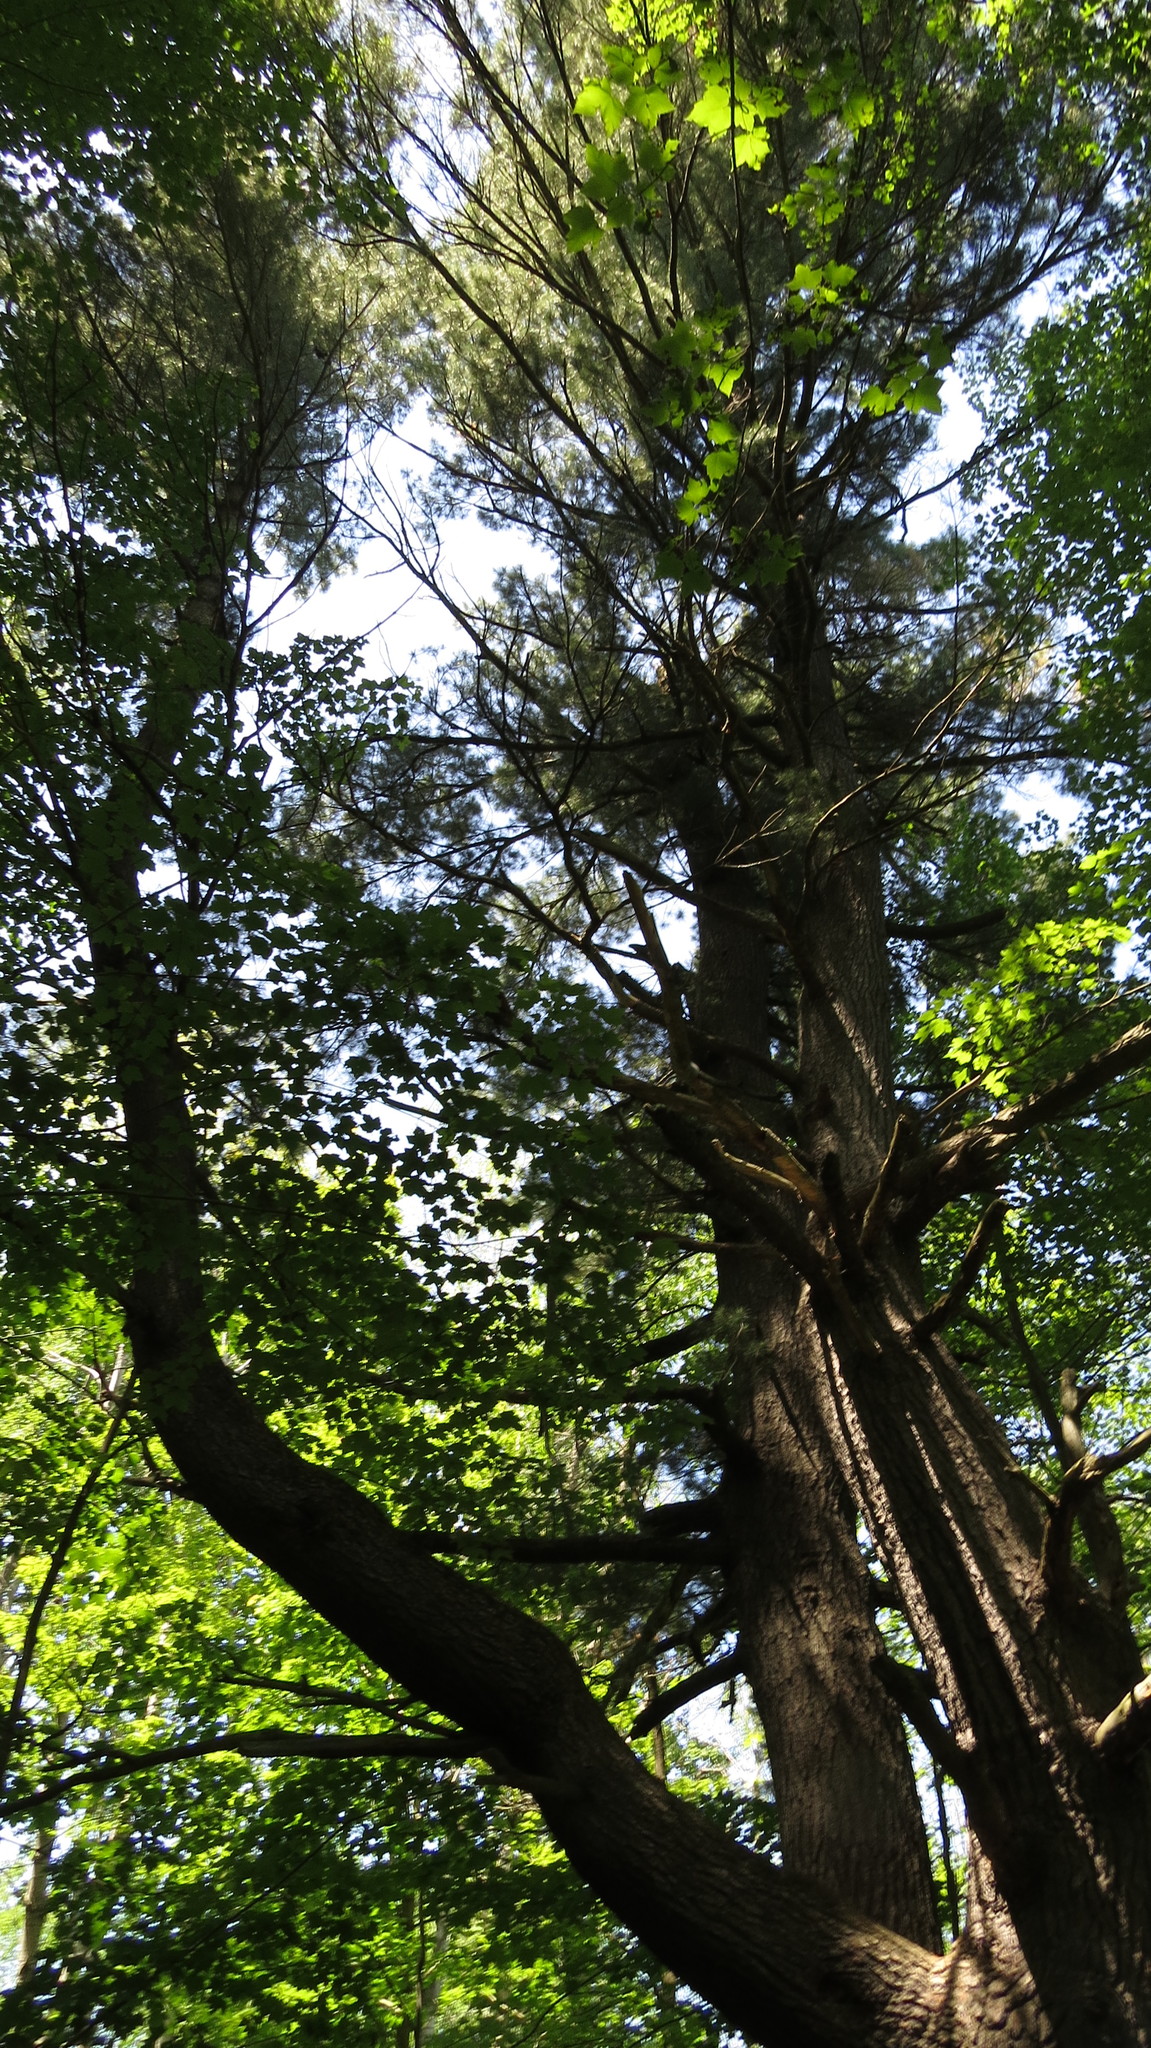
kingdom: Plantae
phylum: Tracheophyta
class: Pinopsida
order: Pinales
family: Pinaceae
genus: Pinus
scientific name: Pinus strobus
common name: Weymouth pine
